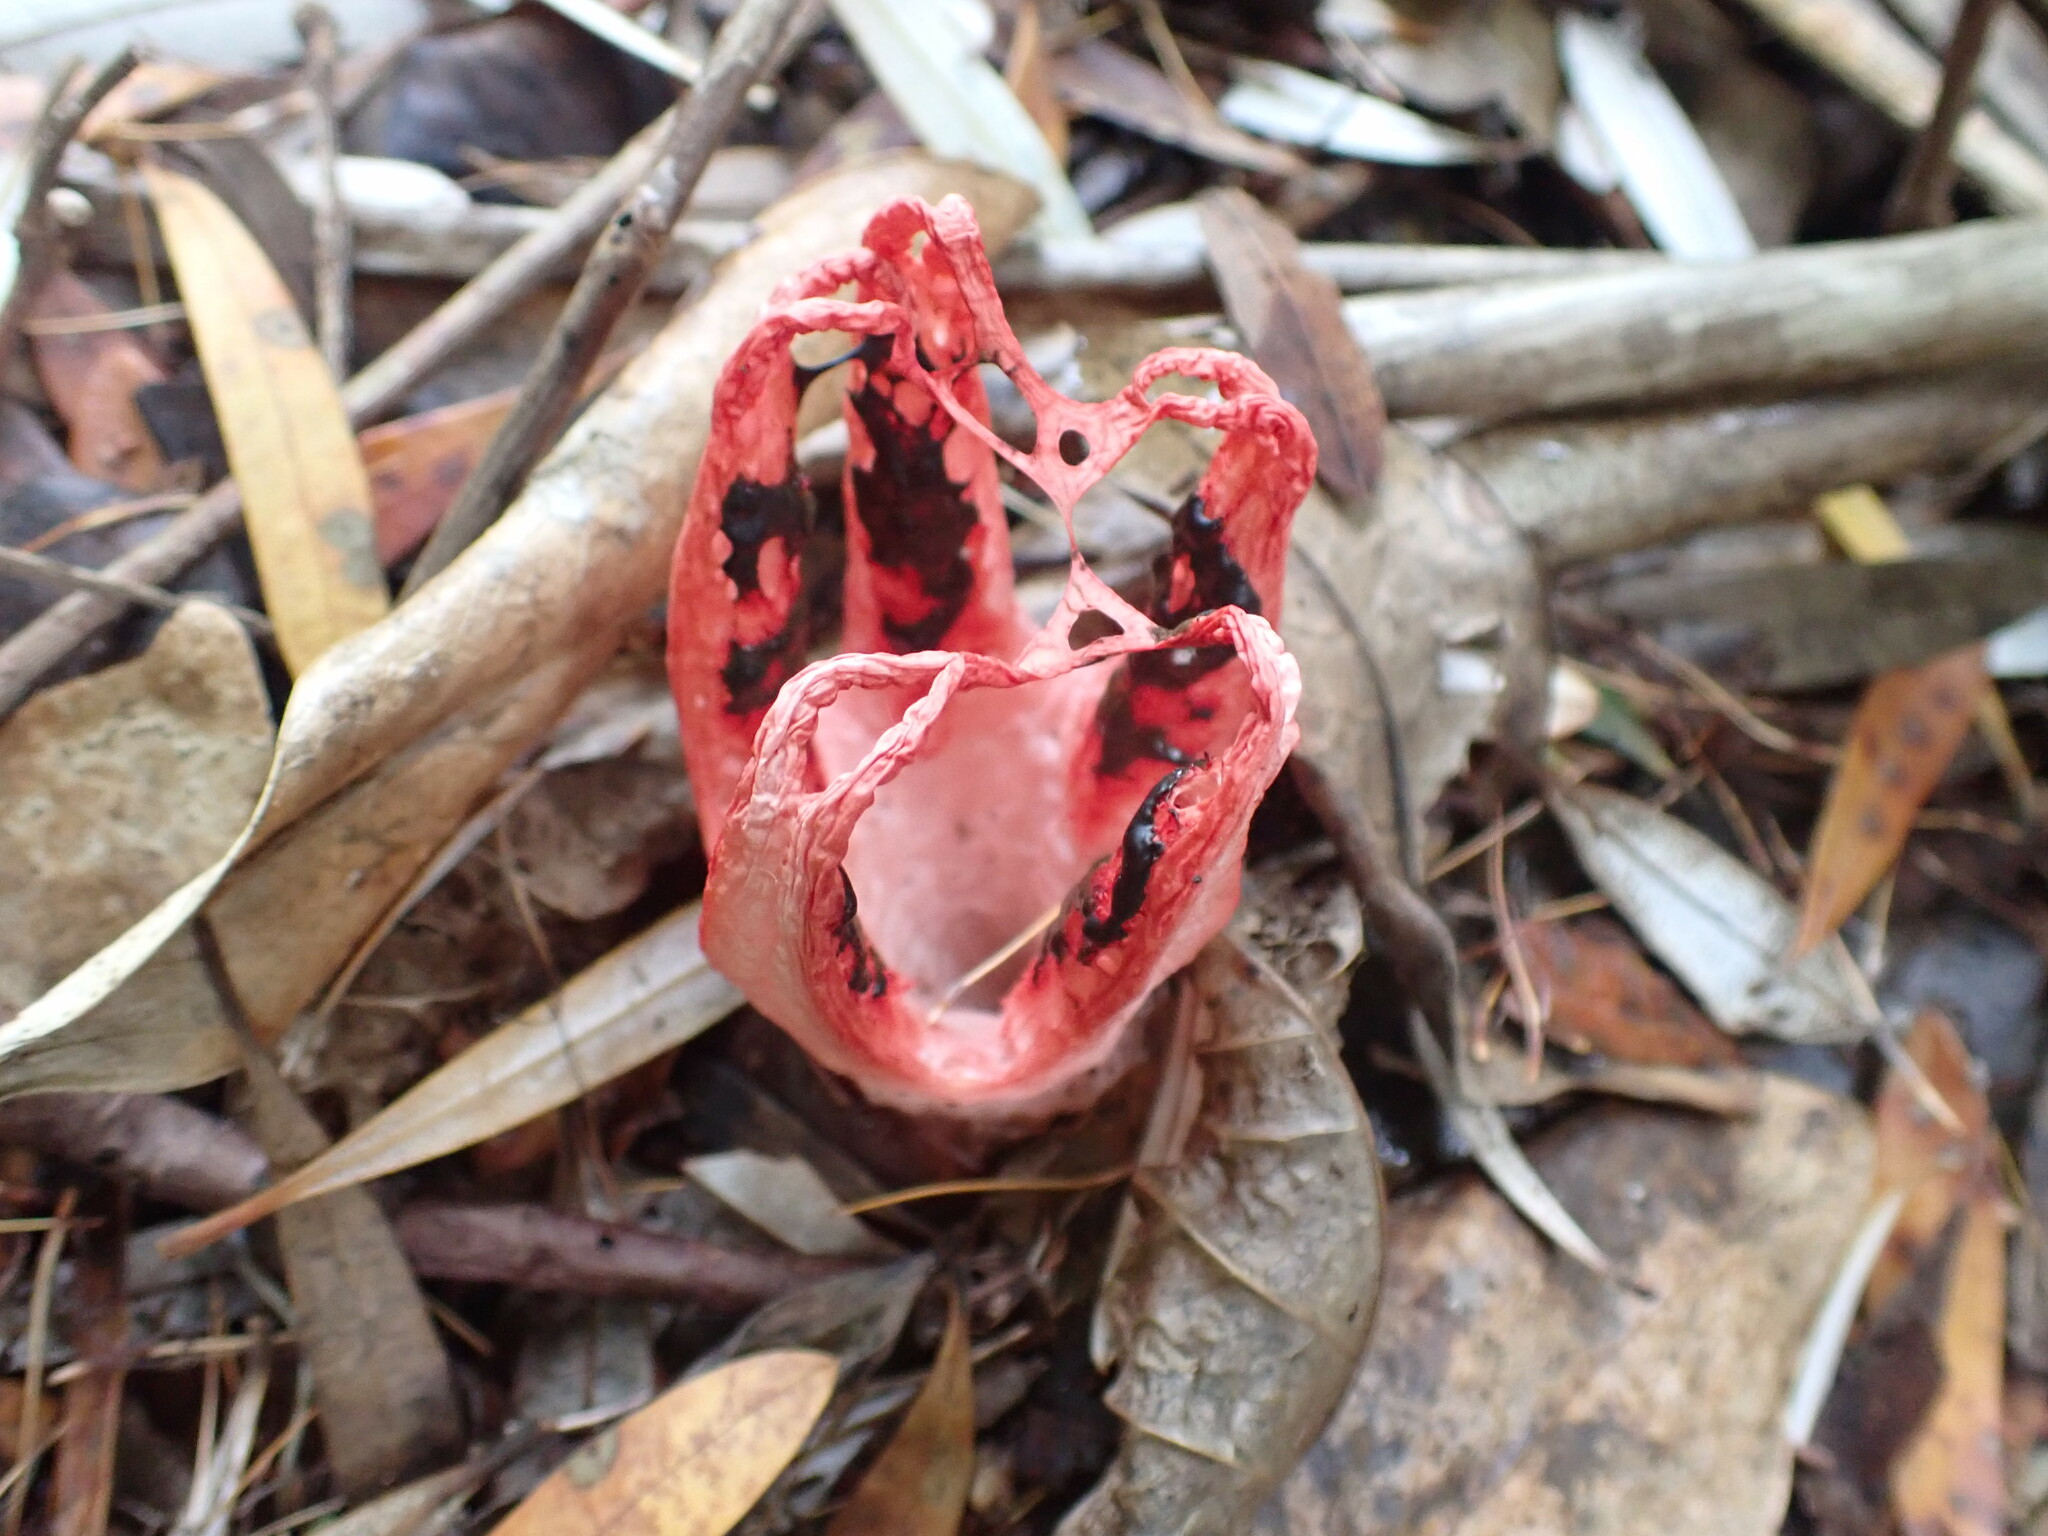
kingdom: Fungi
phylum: Basidiomycota
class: Agaricomycetes
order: Phallales
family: Phallaceae
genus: Clathrus
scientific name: Clathrus archeri
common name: Devil's fingers
